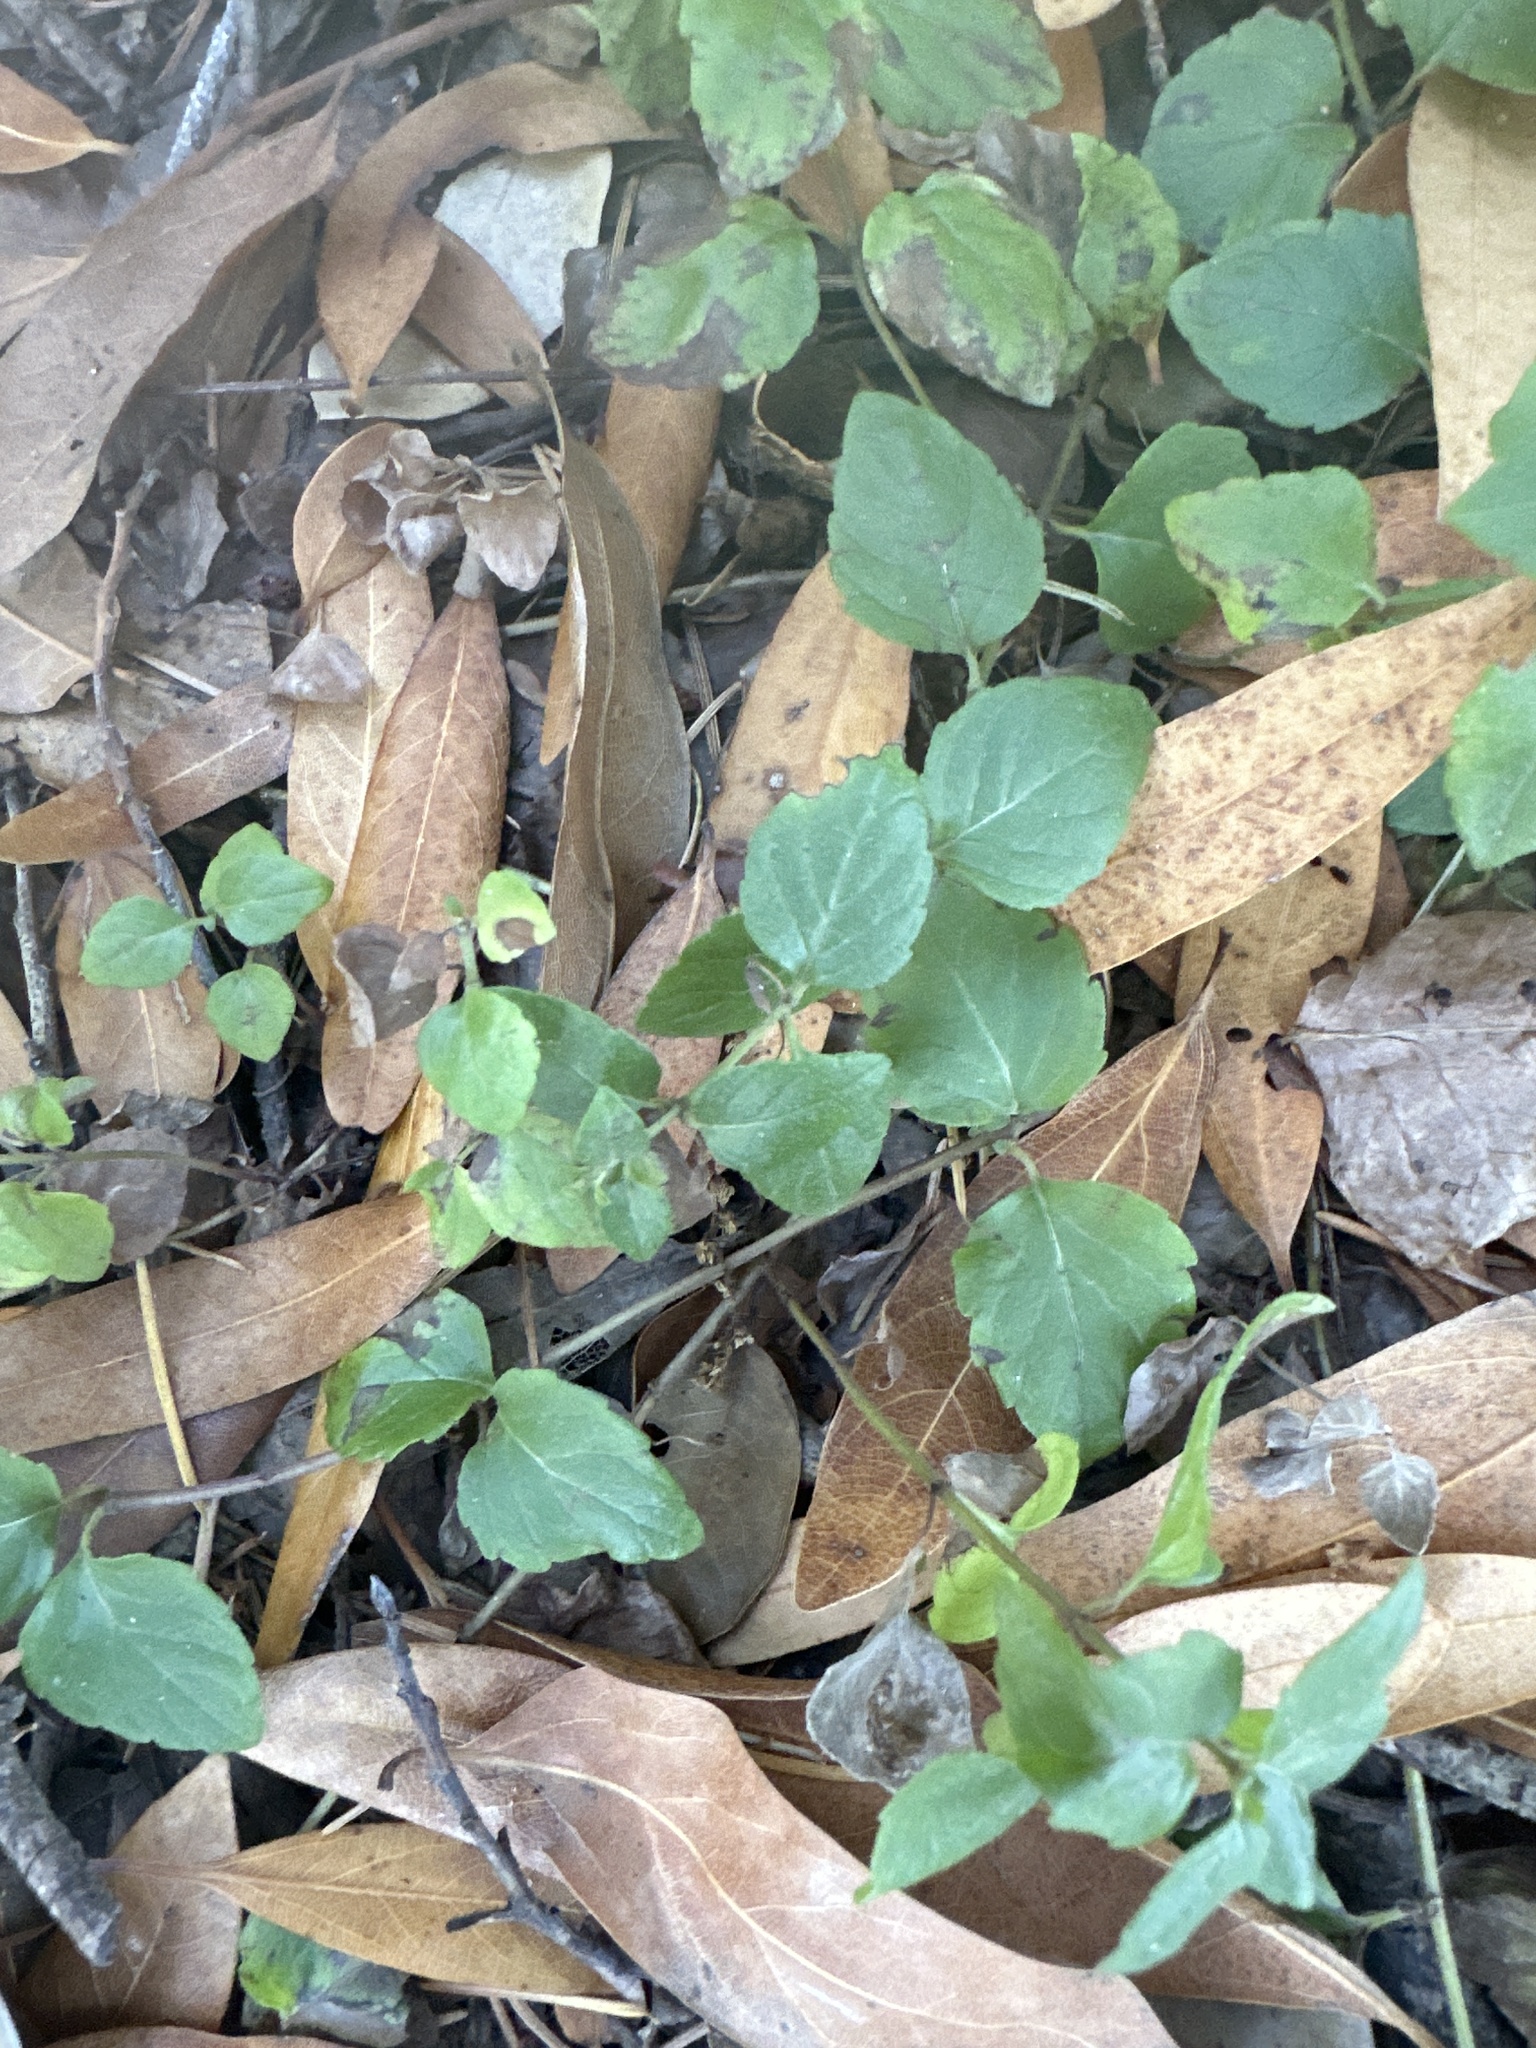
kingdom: Plantae
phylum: Tracheophyta
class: Magnoliopsida
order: Lamiales
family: Lamiaceae
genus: Micromeria
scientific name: Micromeria douglasii
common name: Yerba buena
